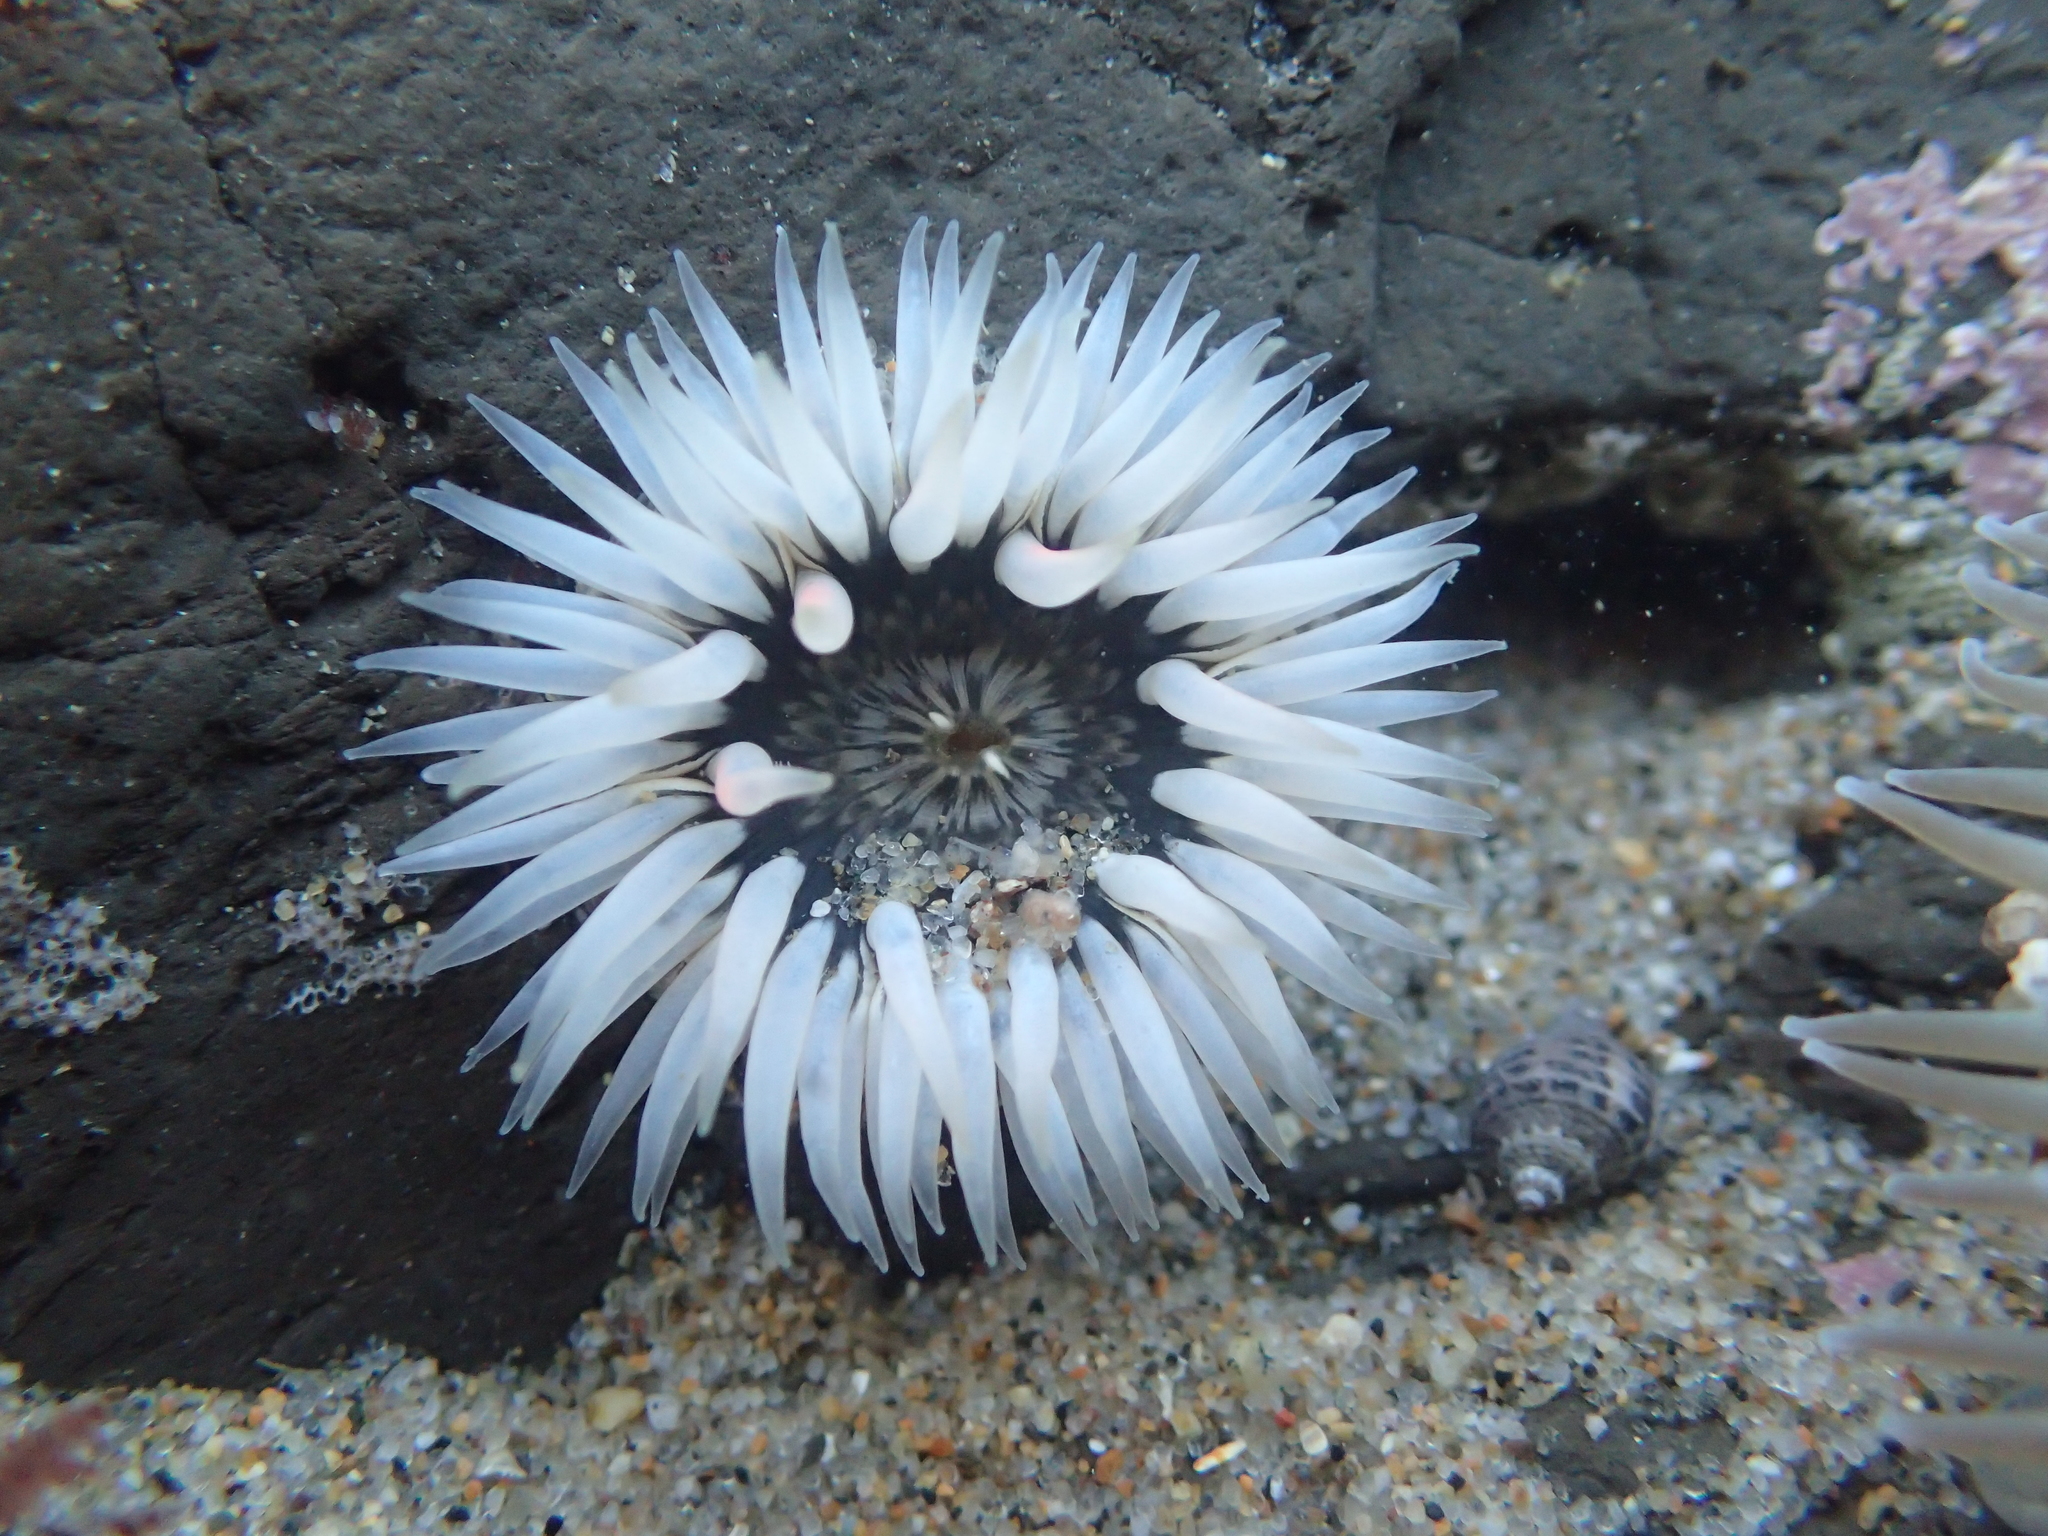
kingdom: Animalia
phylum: Cnidaria
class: Anthozoa
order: Actiniaria
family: Actiniidae
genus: Anthopleura
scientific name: Anthopleura artemisia
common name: Buried sea anemone
